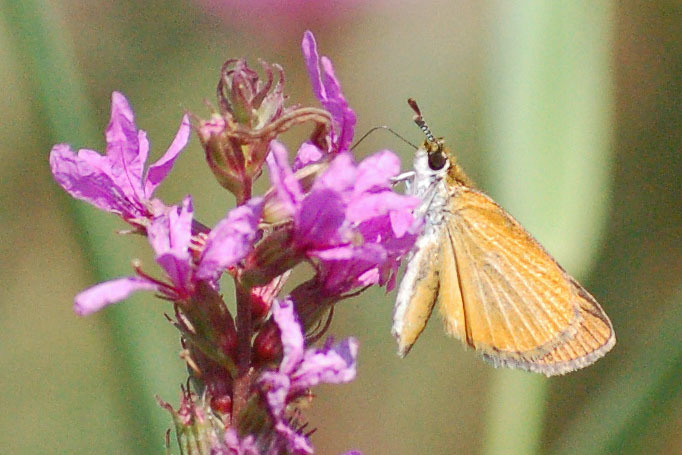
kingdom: Animalia
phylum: Arthropoda
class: Insecta
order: Lepidoptera
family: Hesperiidae
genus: Ancyloxypha
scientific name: Ancyloxypha numitor
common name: Least skipper
